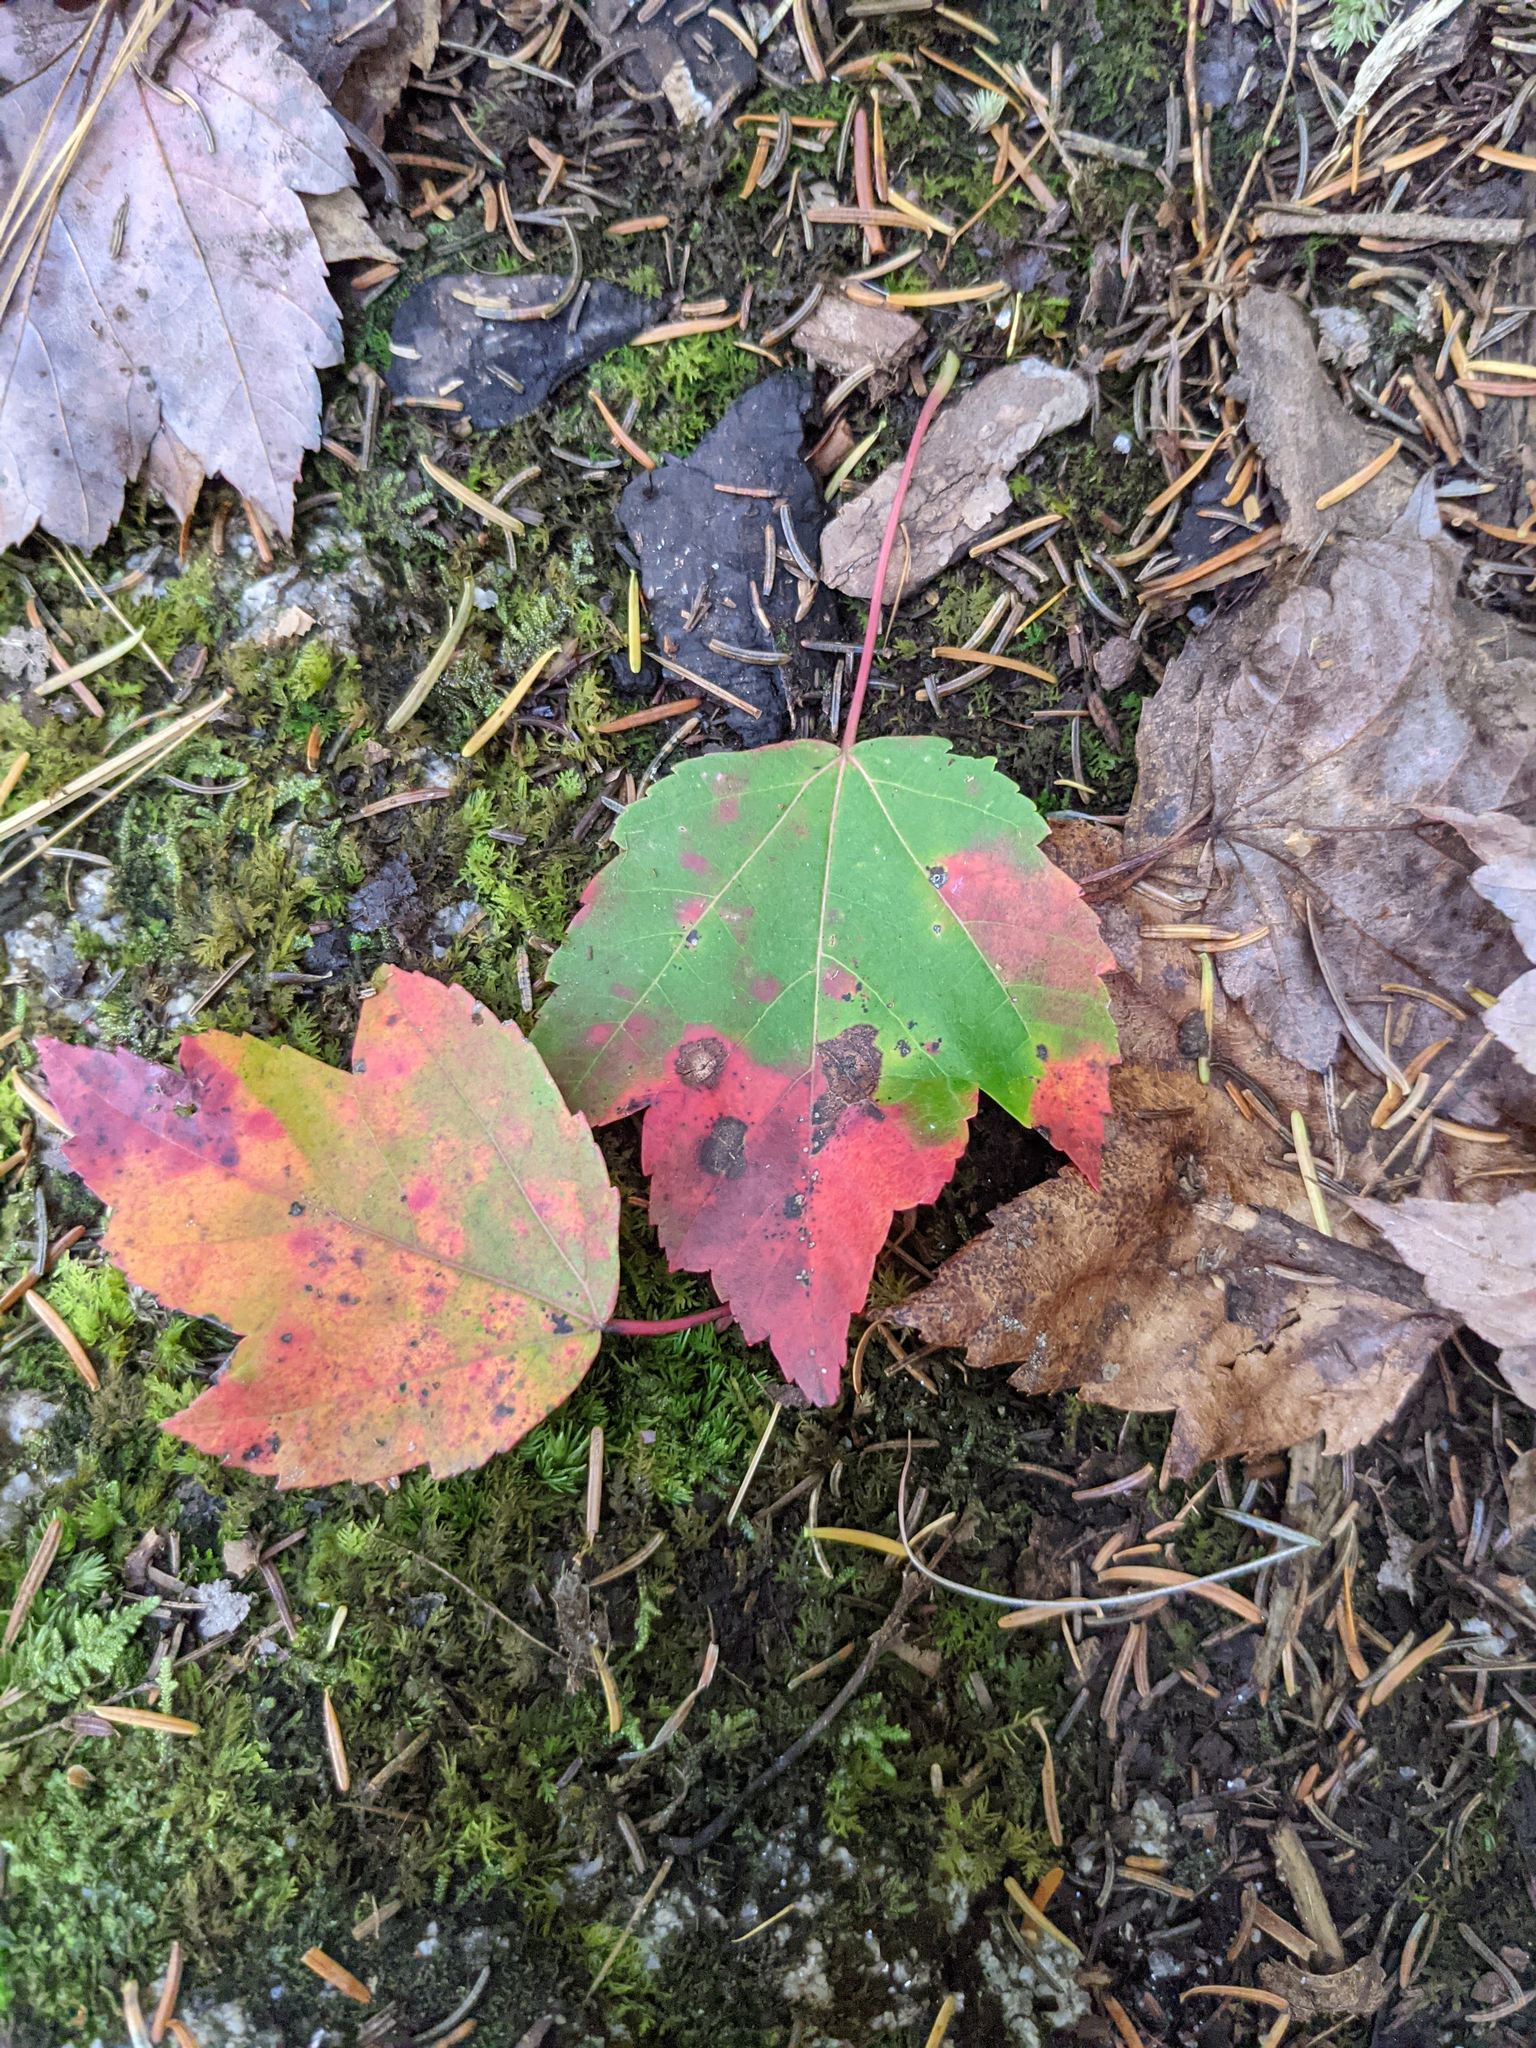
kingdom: Plantae
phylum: Tracheophyta
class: Magnoliopsida
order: Sapindales
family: Sapindaceae
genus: Acer
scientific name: Acer rubrum
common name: Red maple
